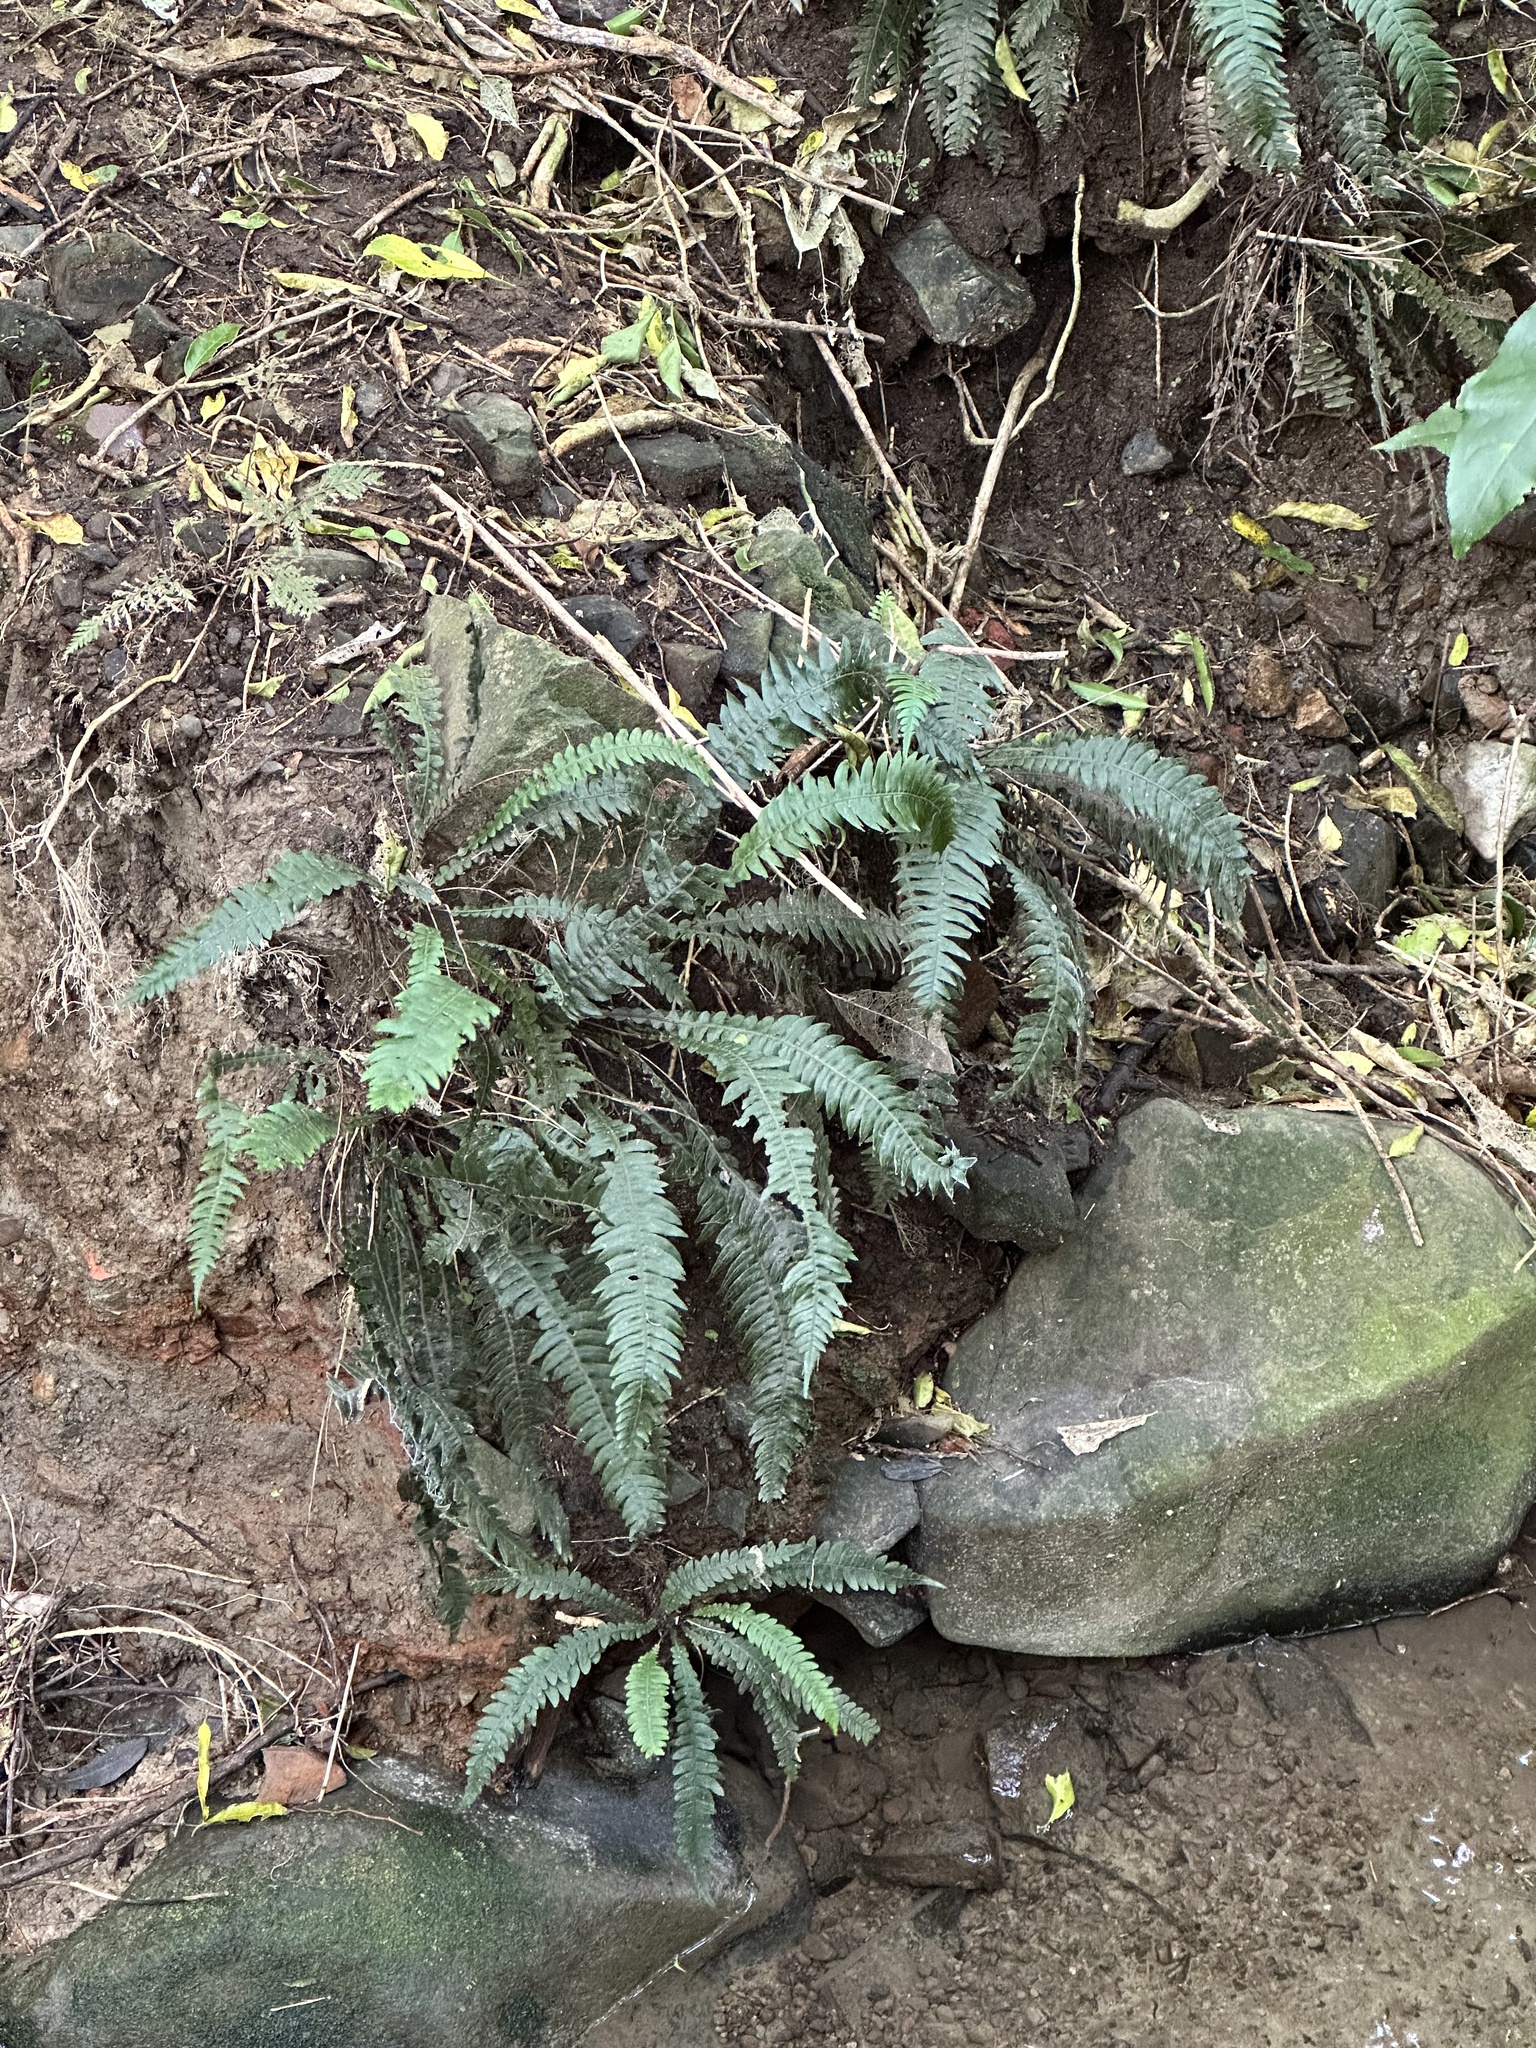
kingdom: Plantae
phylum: Tracheophyta
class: Polypodiopsida
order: Polypodiales
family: Blechnaceae
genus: Austroblechnum
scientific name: Austroblechnum lanceolatum
